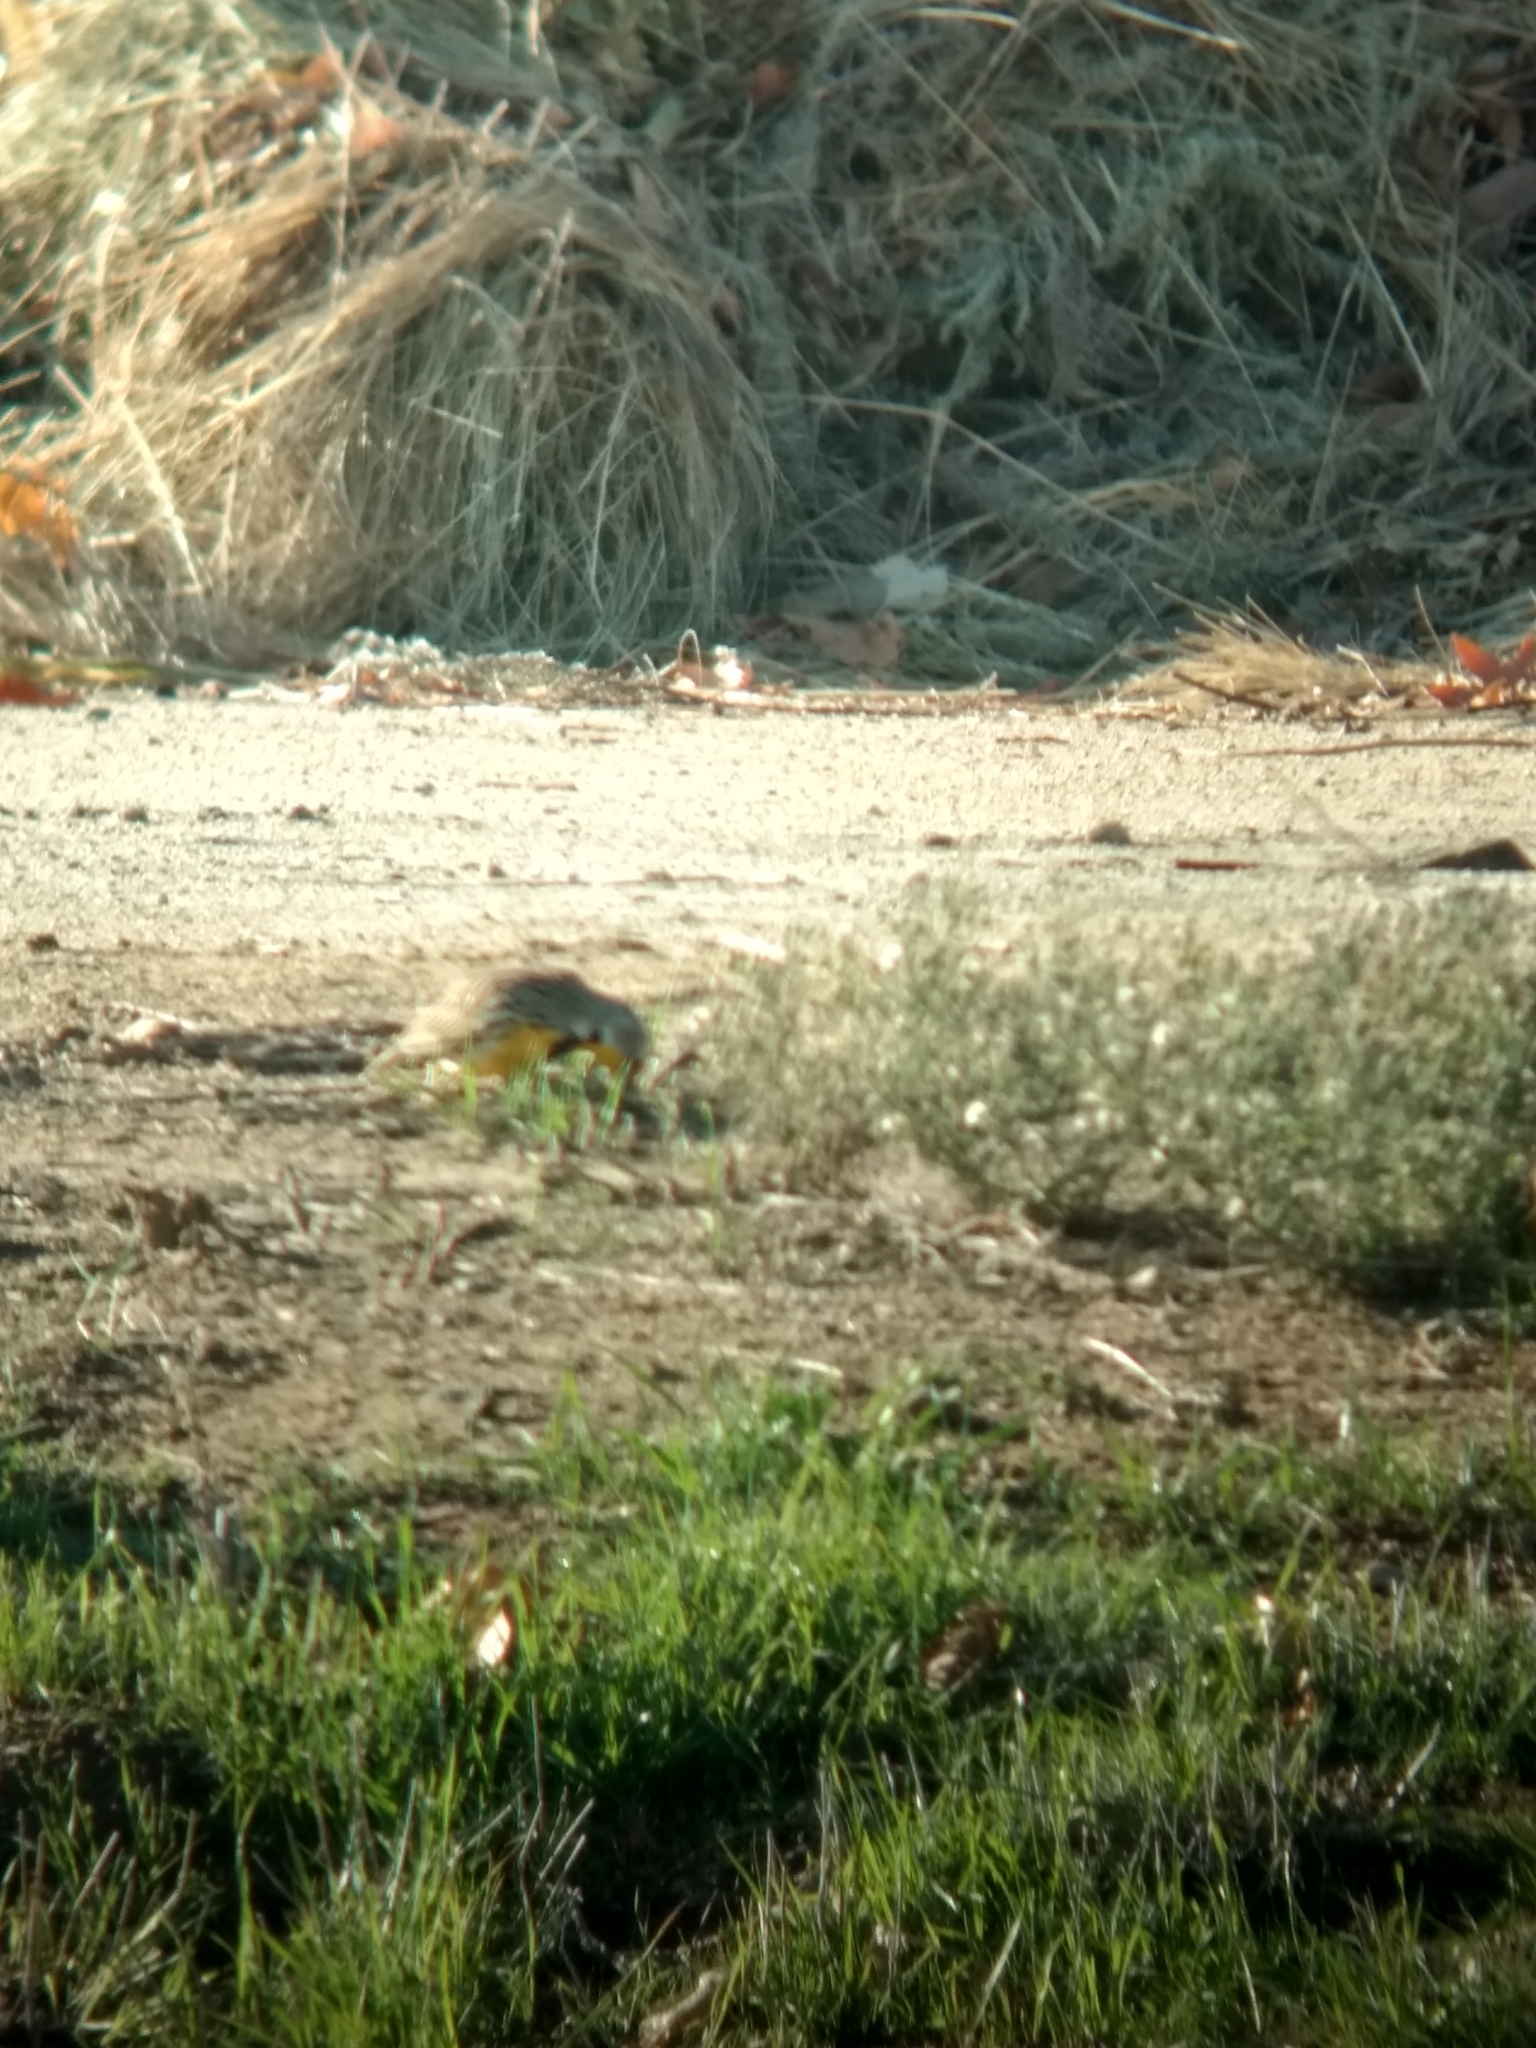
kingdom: Animalia
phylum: Chordata
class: Aves
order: Passeriformes
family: Icteridae
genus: Sturnella
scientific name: Sturnella neglecta
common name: Western meadowlark
